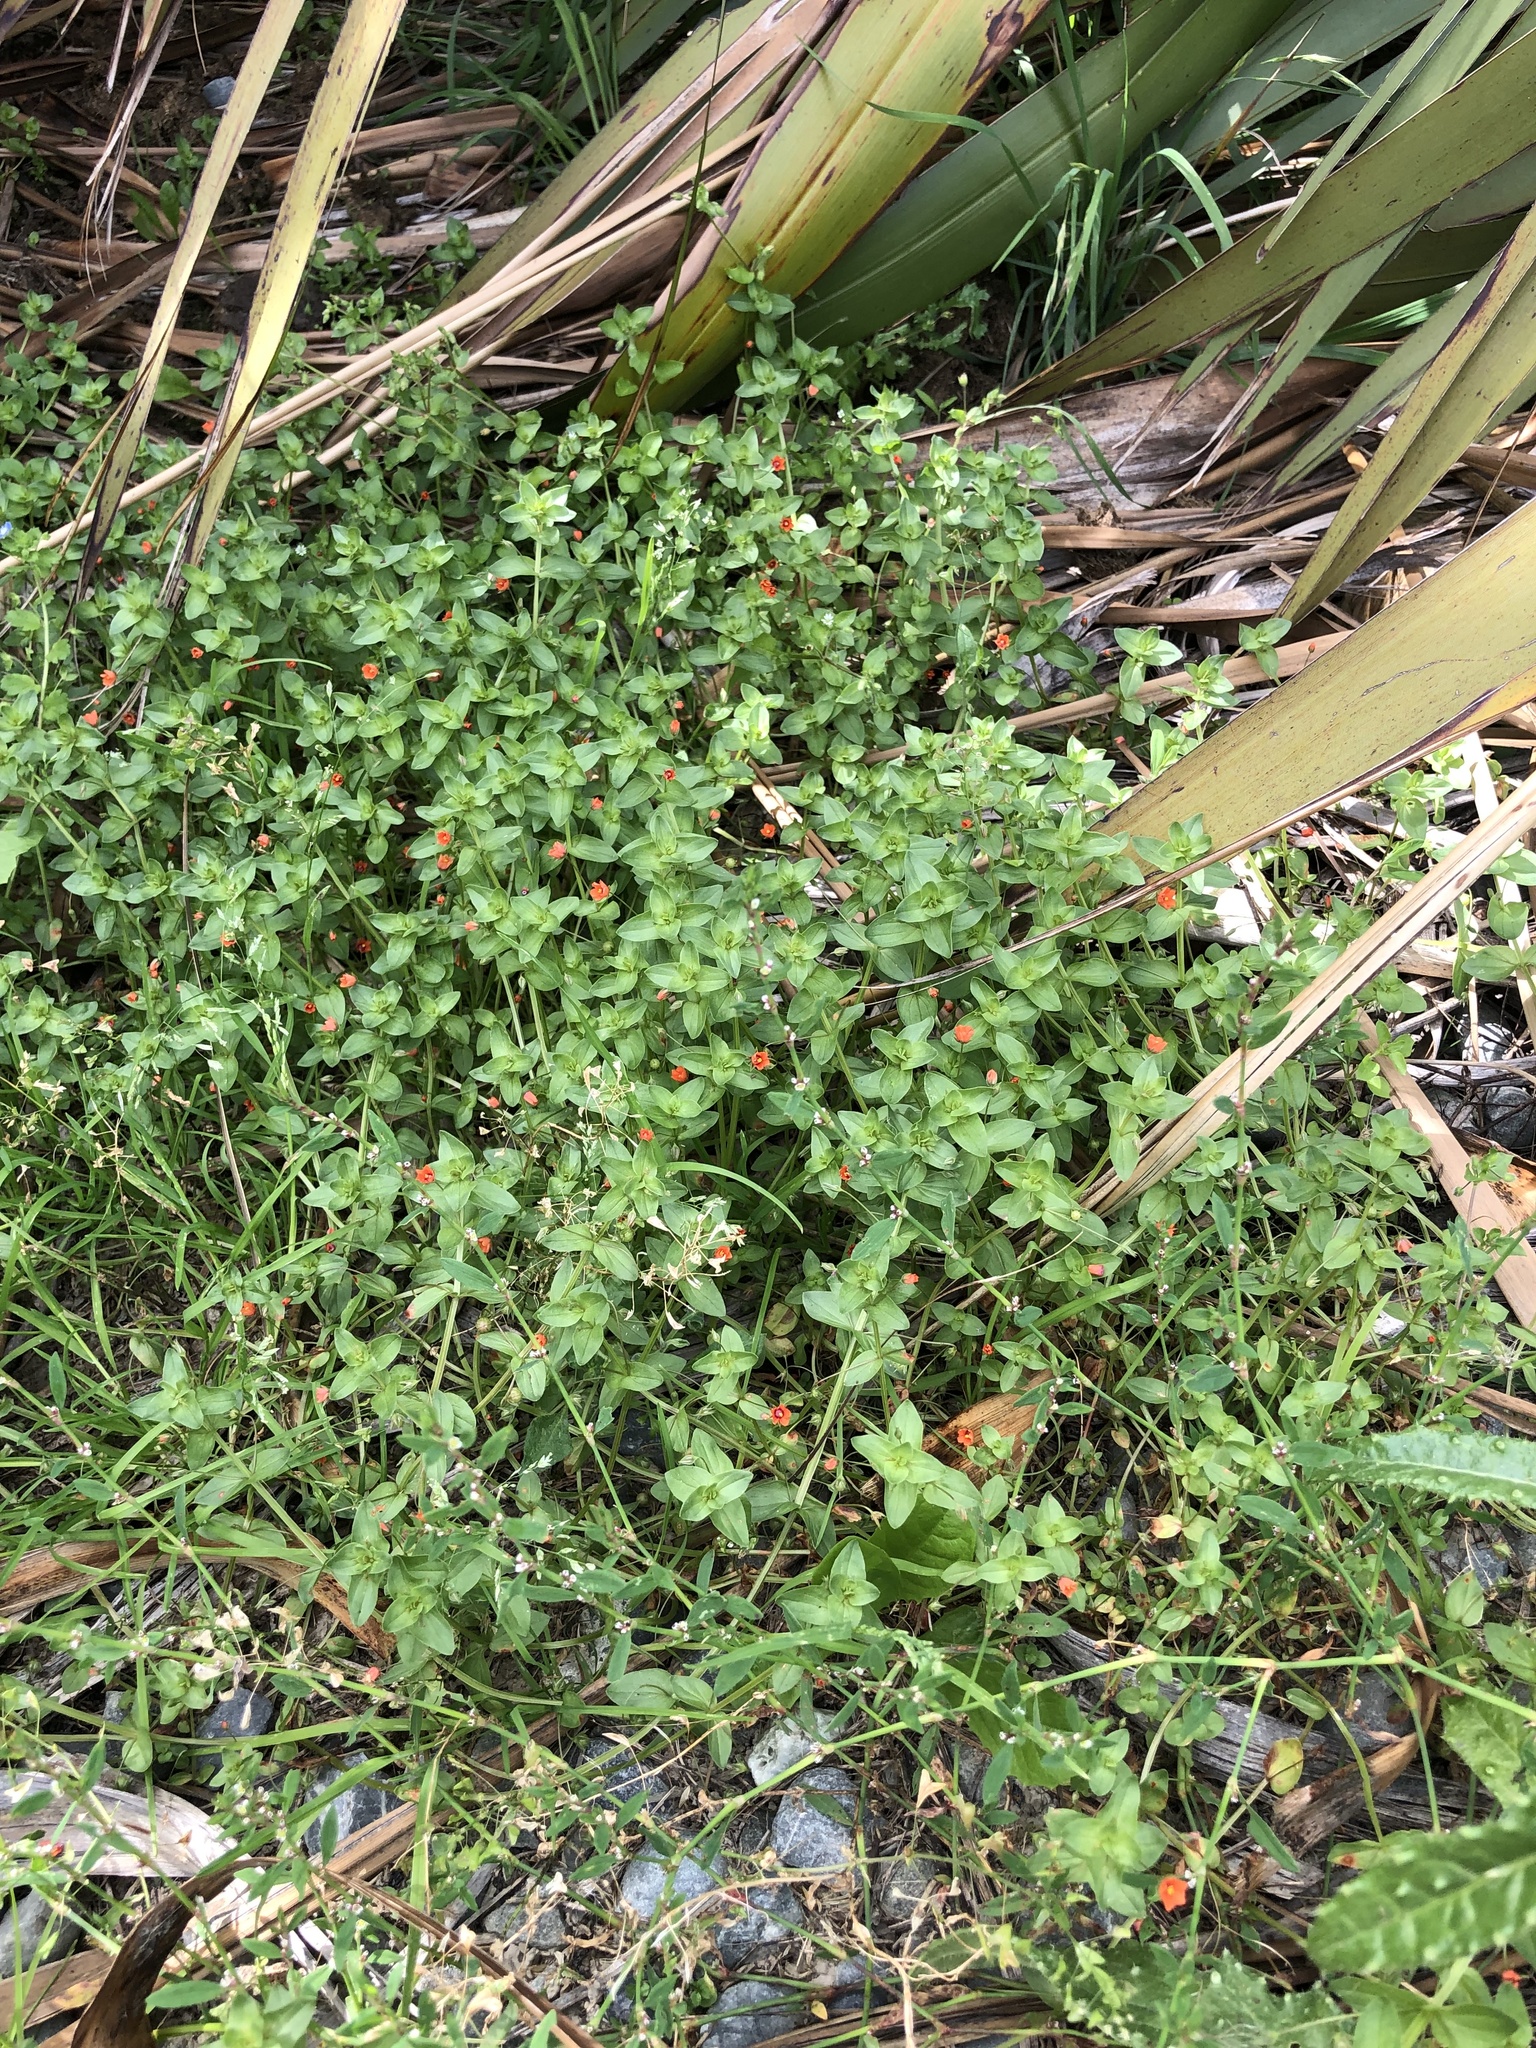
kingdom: Plantae
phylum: Tracheophyta
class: Magnoliopsida
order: Ericales
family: Primulaceae
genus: Lysimachia
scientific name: Lysimachia arvensis
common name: Scarlet pimpernel
